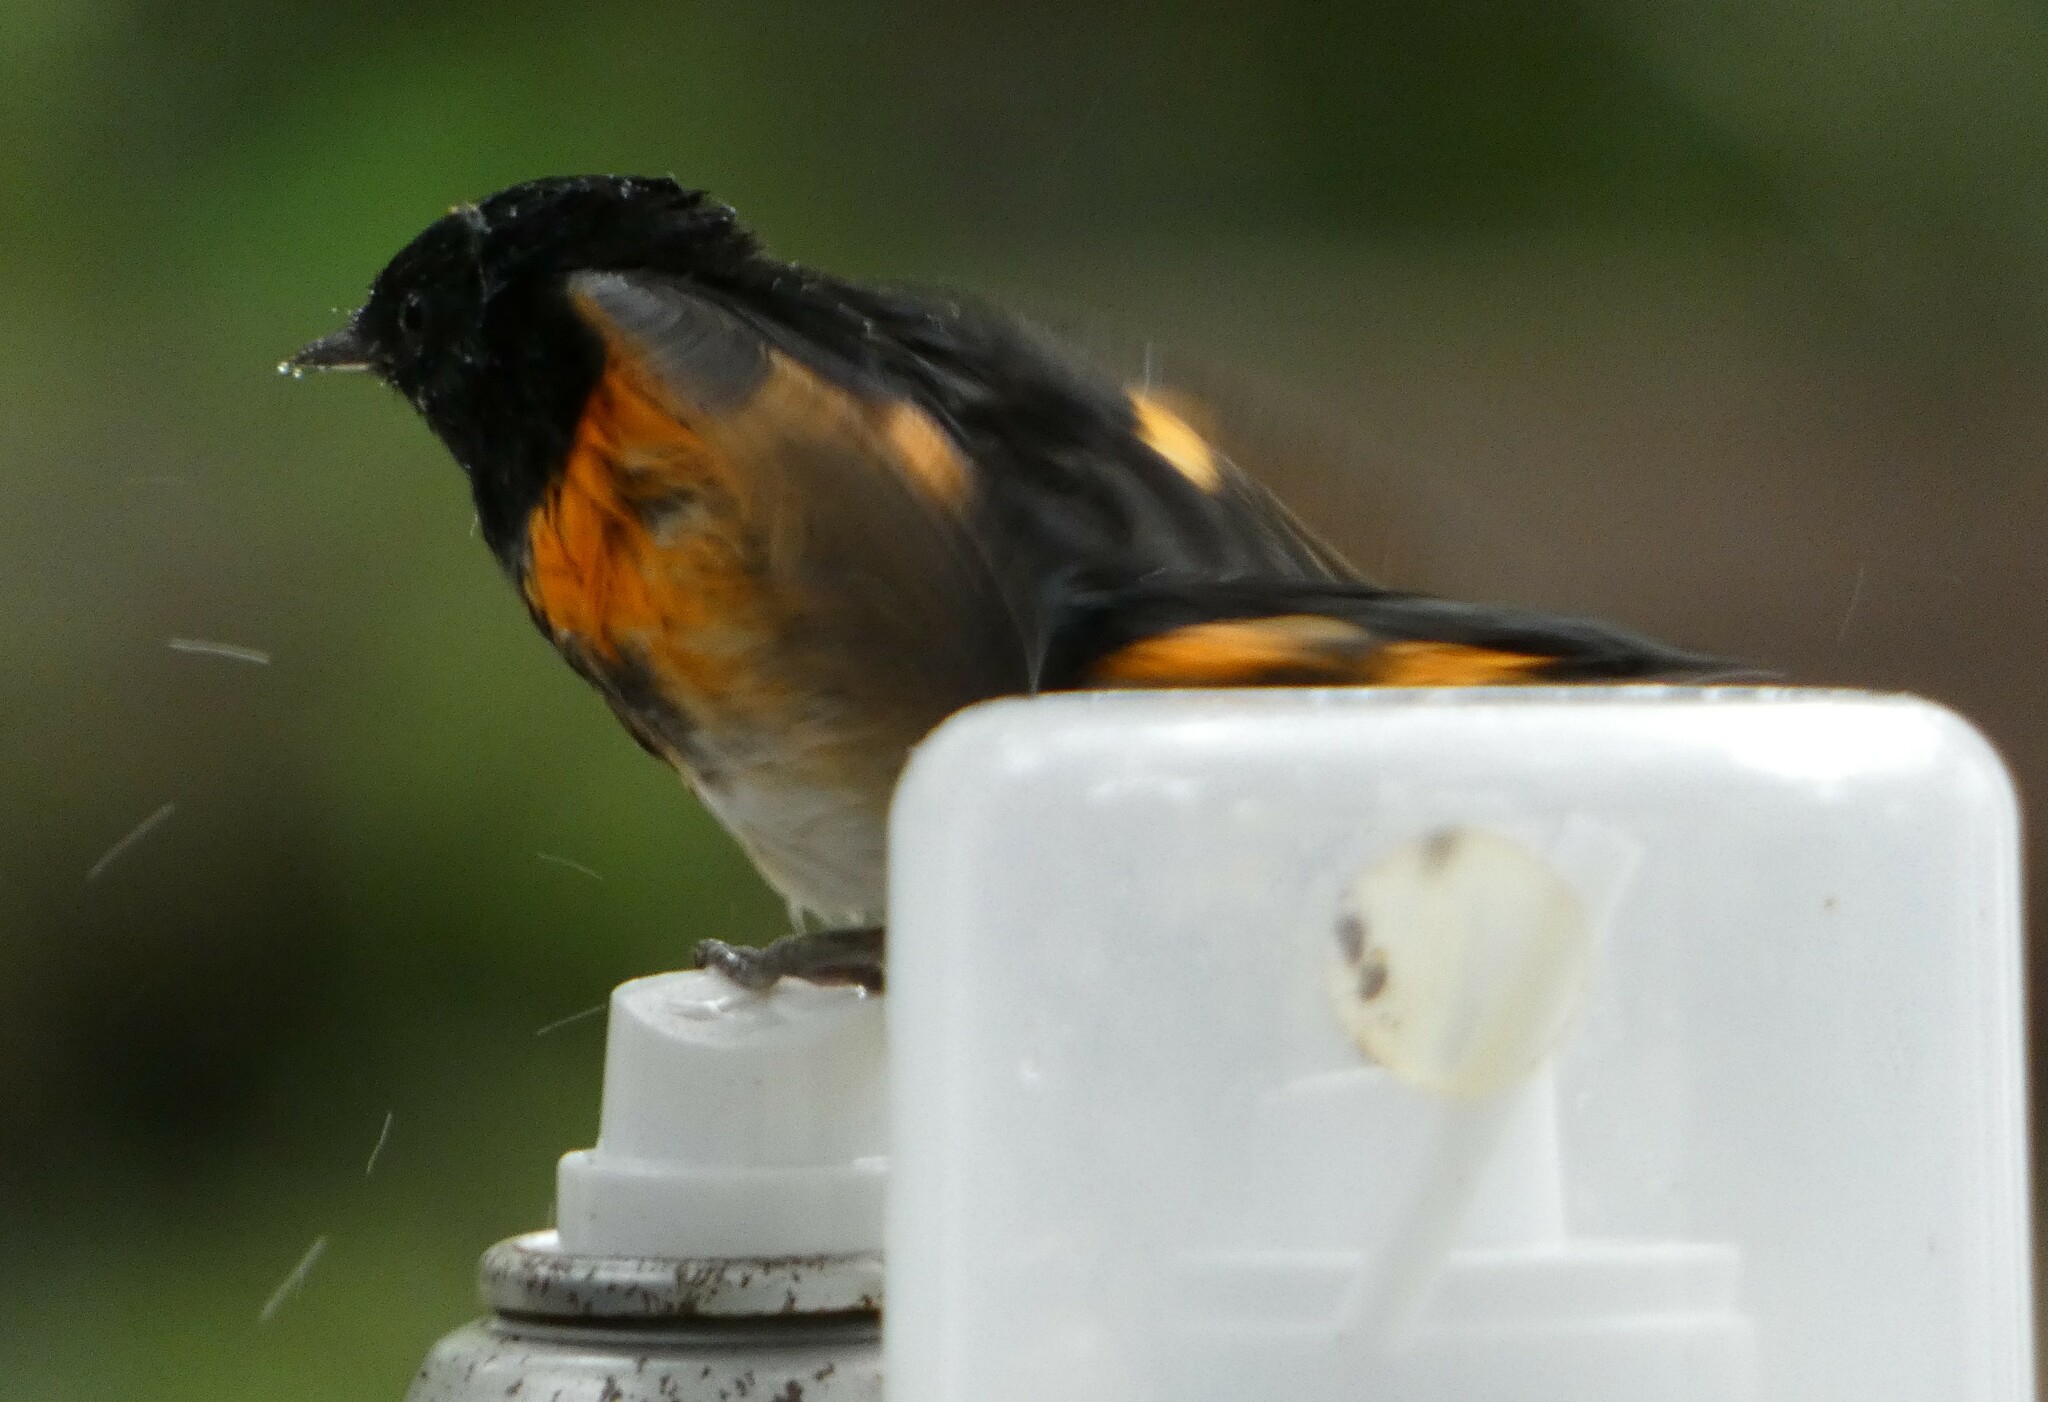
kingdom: Animalia
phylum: Chordata
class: Aves
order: Passeriformes
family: Parulidae
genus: Setophaga
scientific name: Setophaga ruticilla
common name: American redstart
